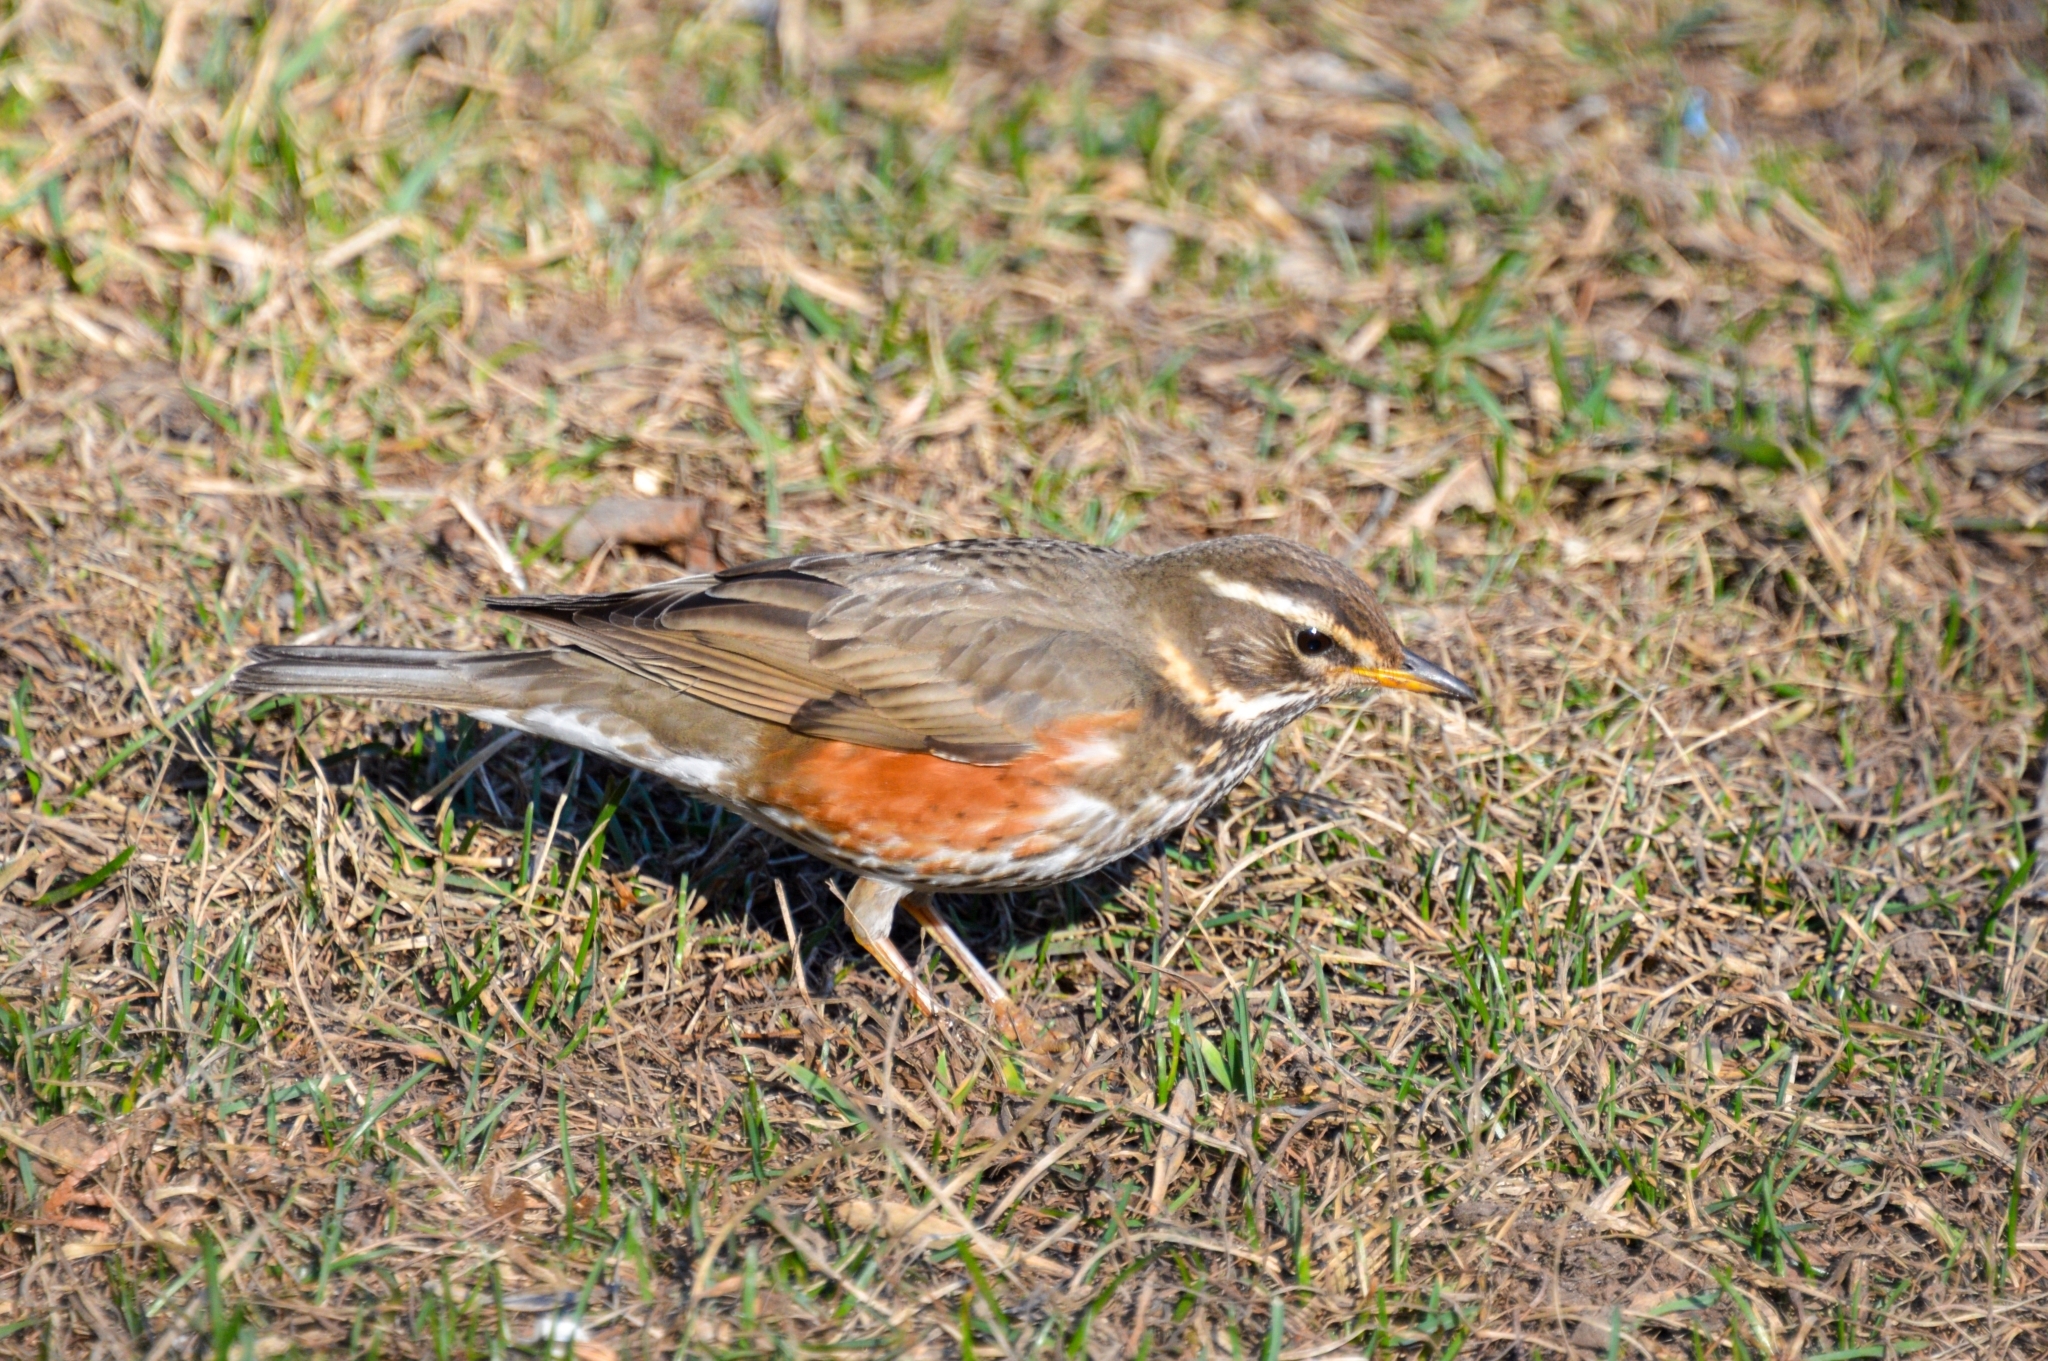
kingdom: Animalia
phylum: Chordata
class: Aves
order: Passeriformes
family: Turdidae
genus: Turdus
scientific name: Turdus iliacus
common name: Redwing
